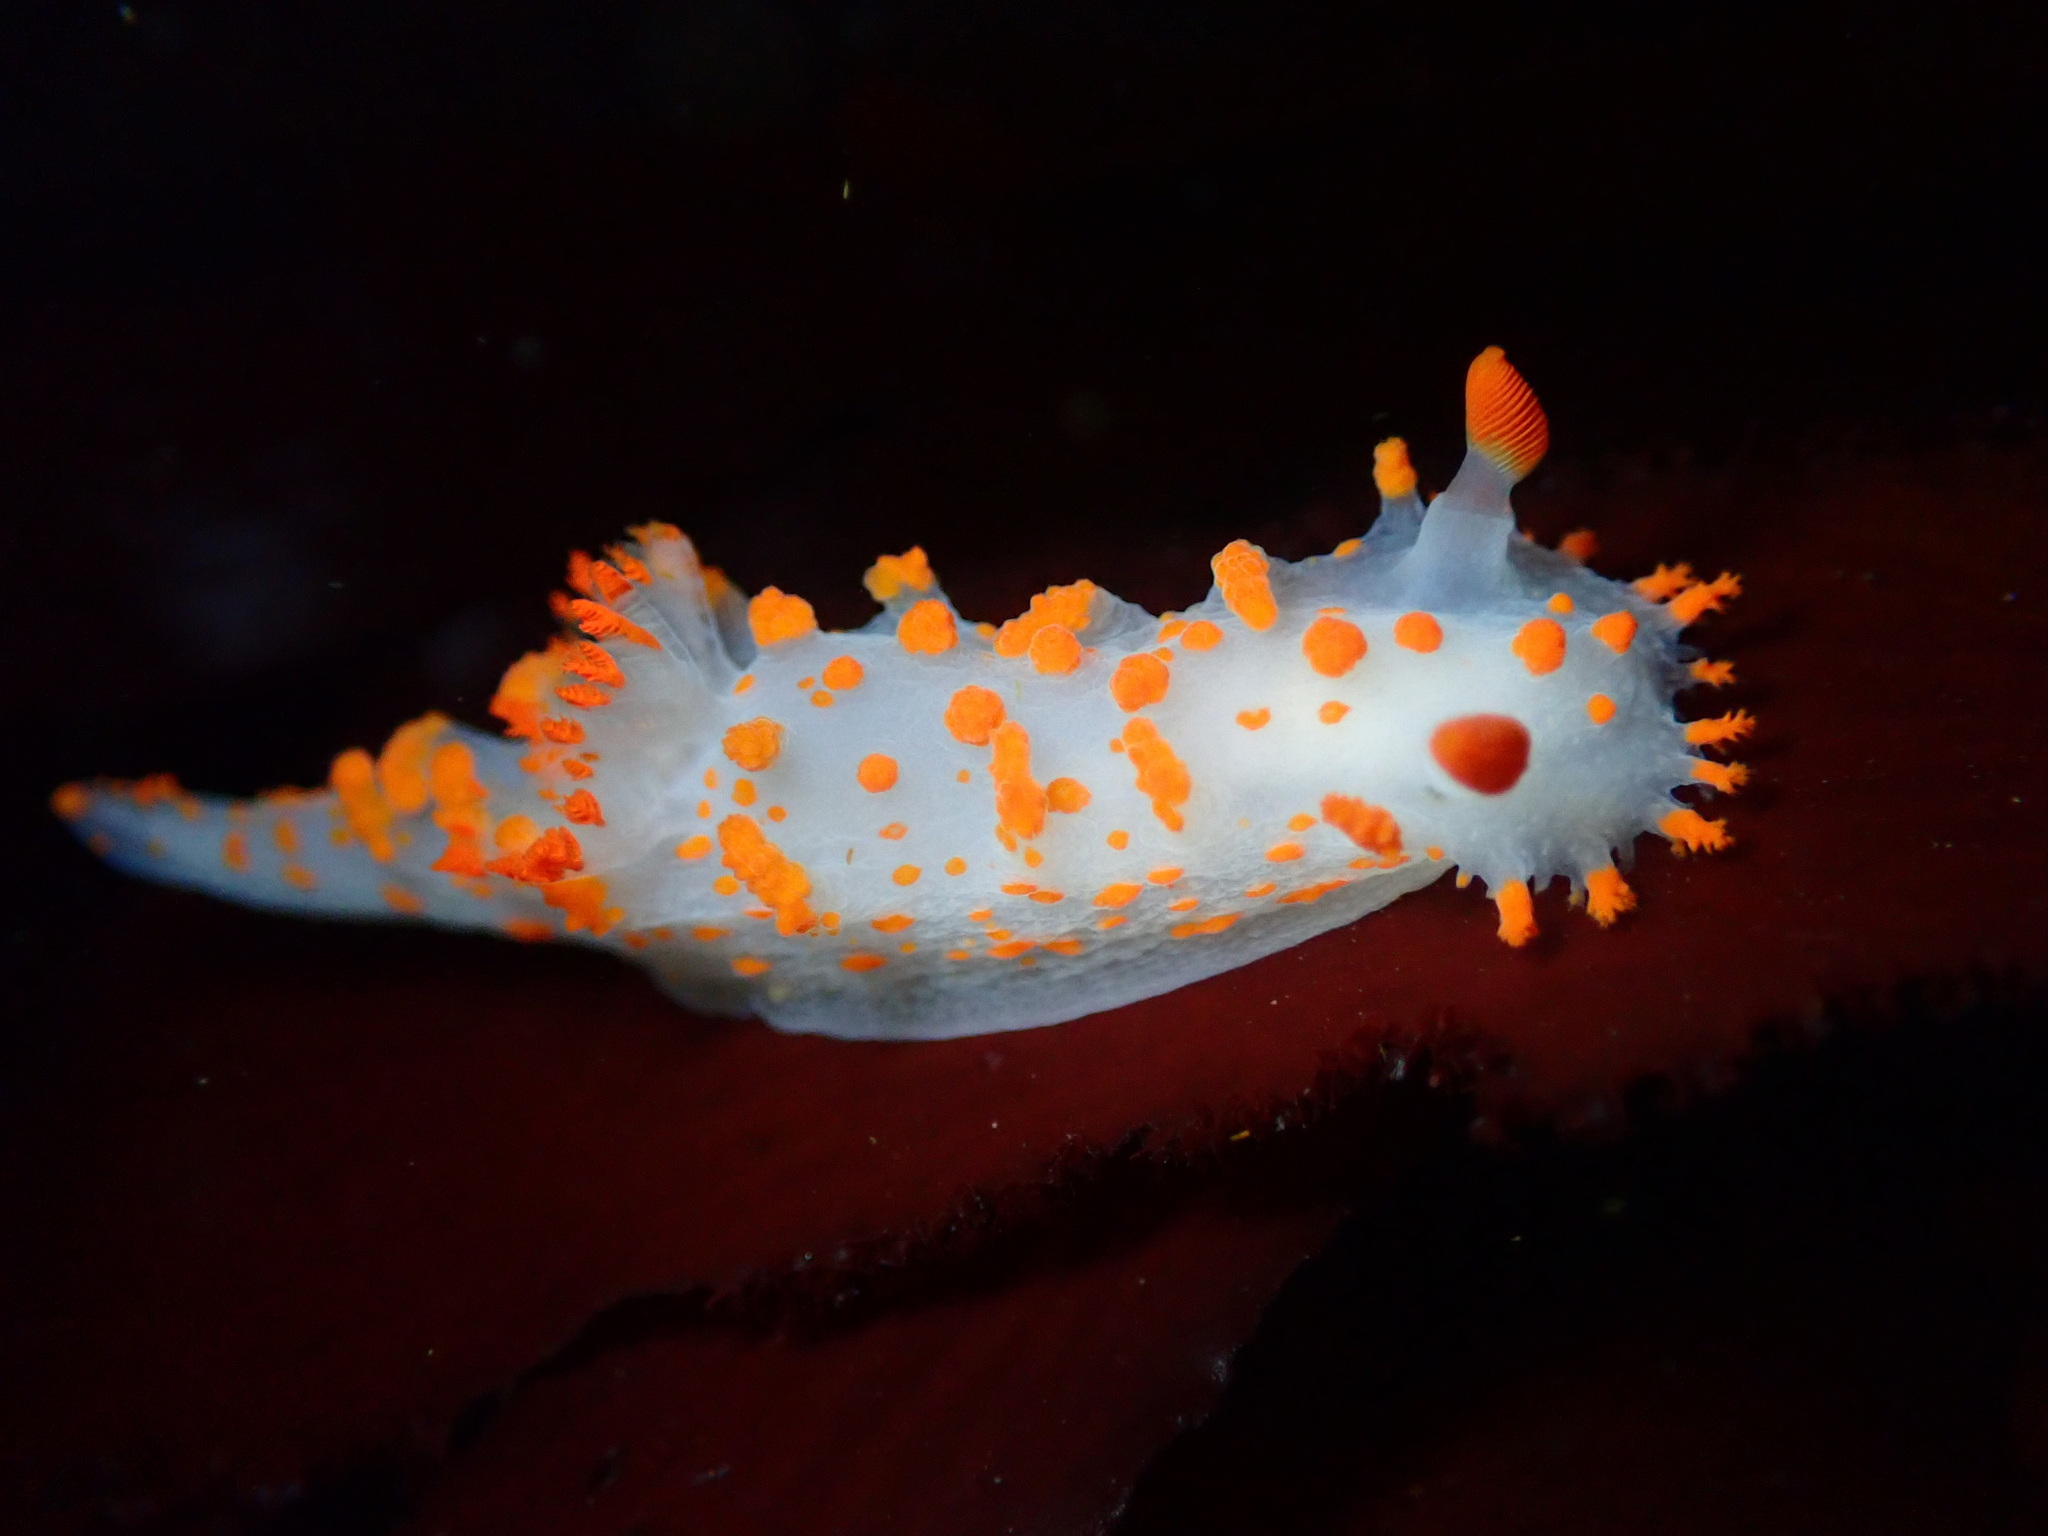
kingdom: Animalia
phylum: Mollusca
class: Gastropoda
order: Nudibranchia
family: Polyceridae
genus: Triopha
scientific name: Triopha catalinae
